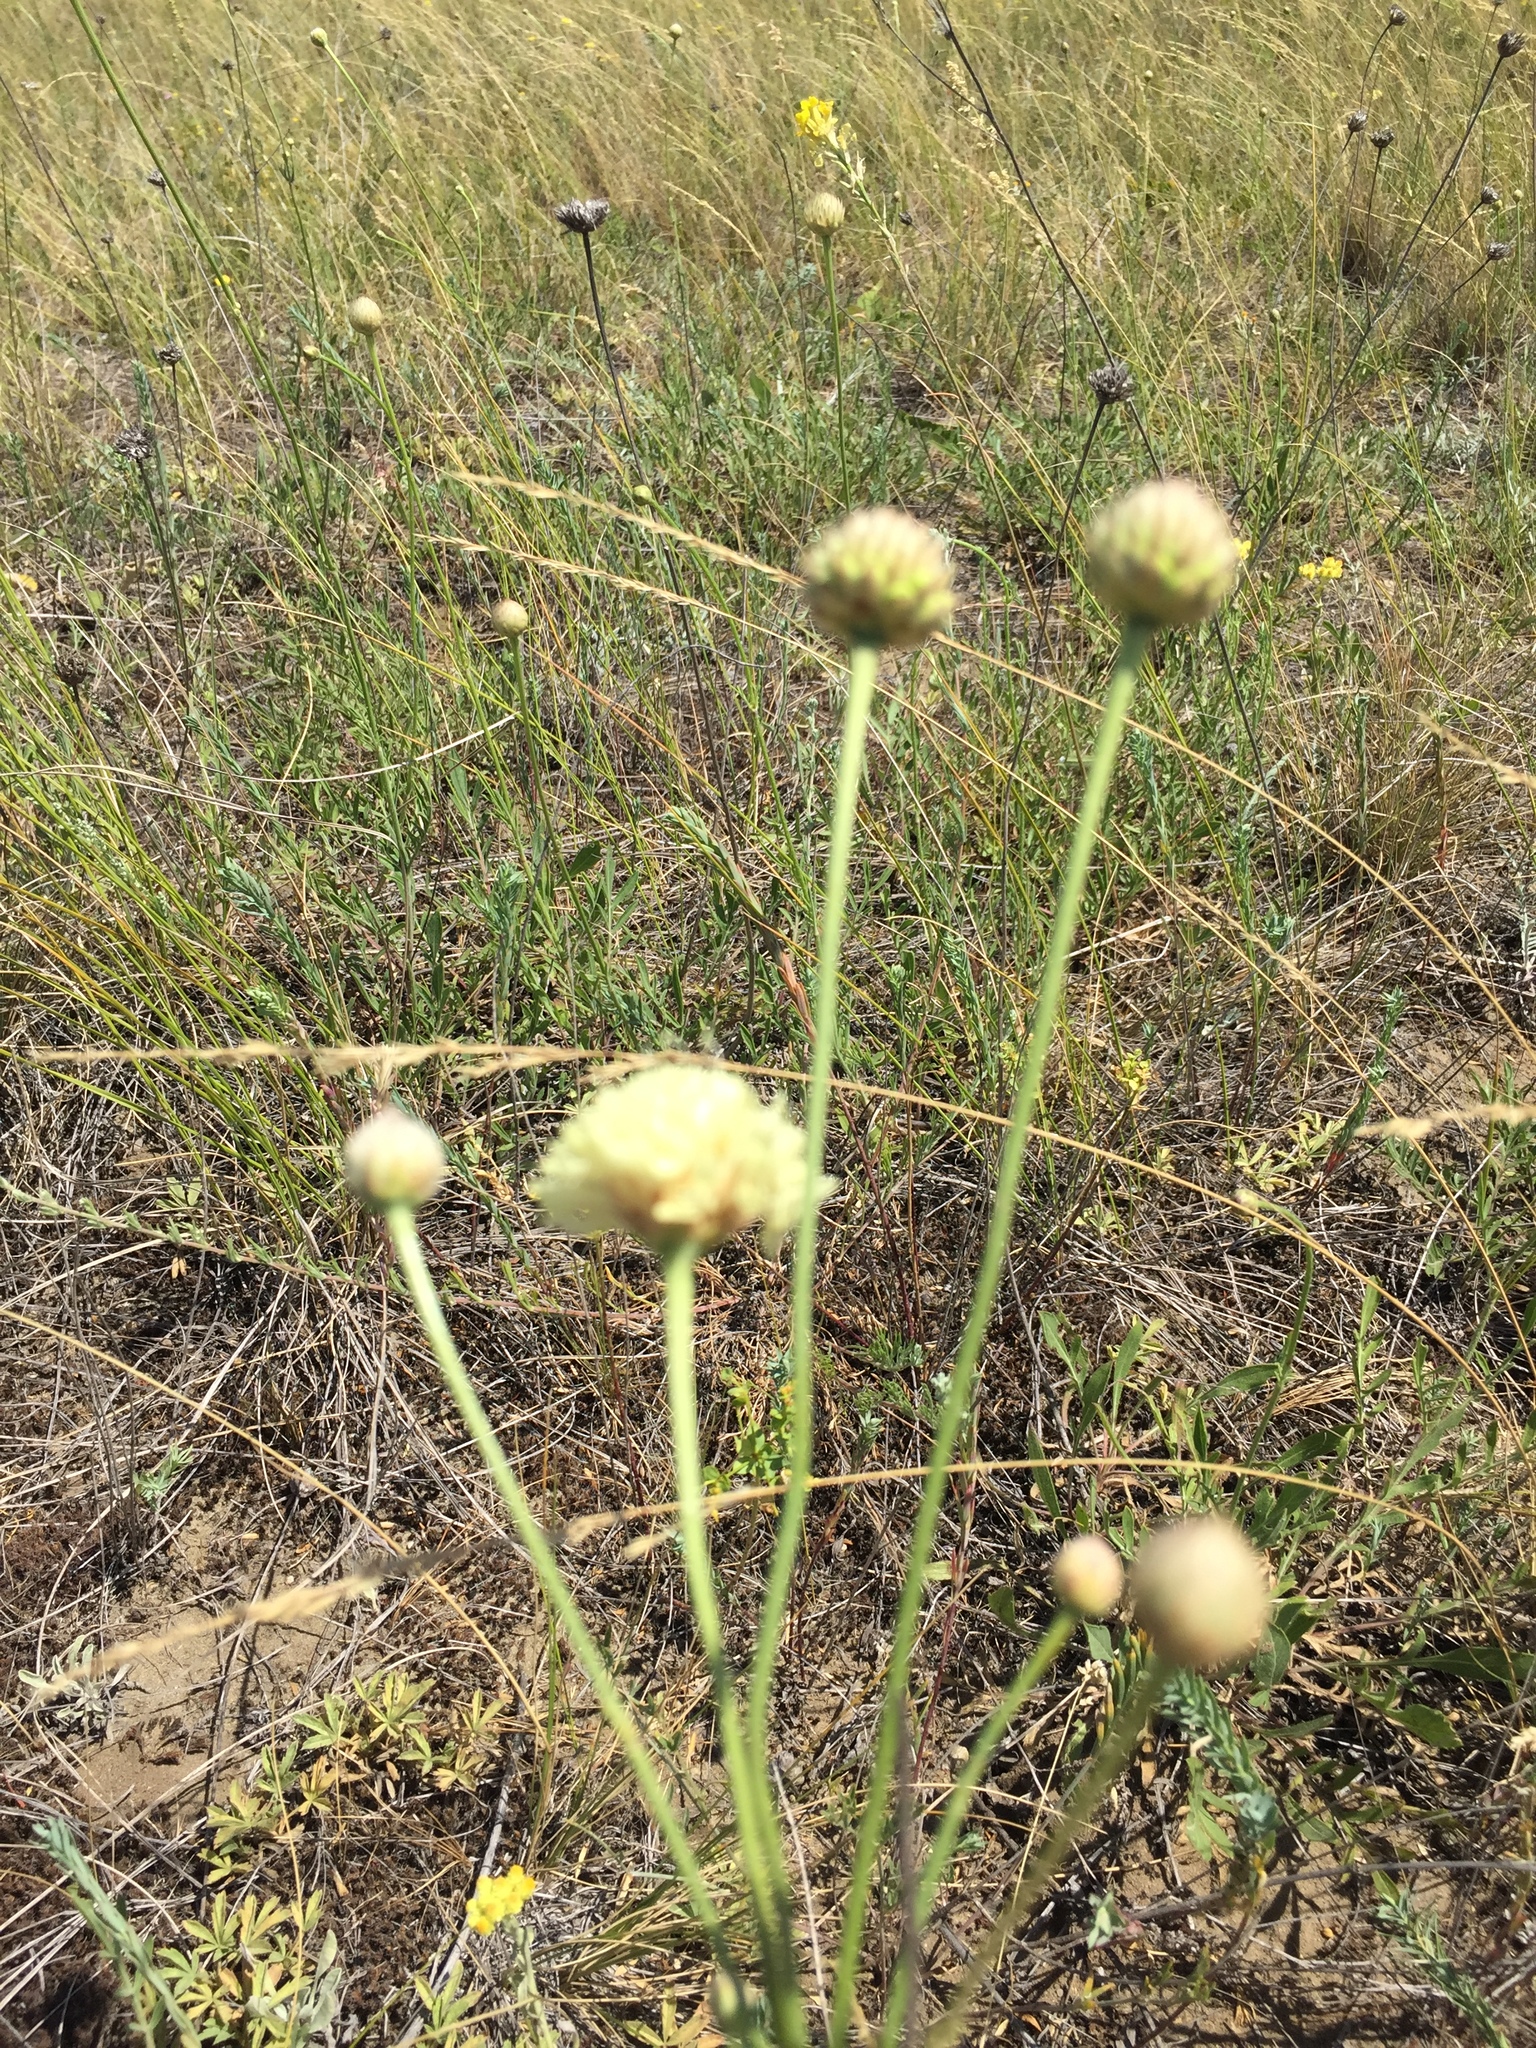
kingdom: Plantae
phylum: Tracheophyta
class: Magnoliopsida
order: Dipsacales
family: Caprifoliaceae
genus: Cephalaria
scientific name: Cephalaria uralensis
